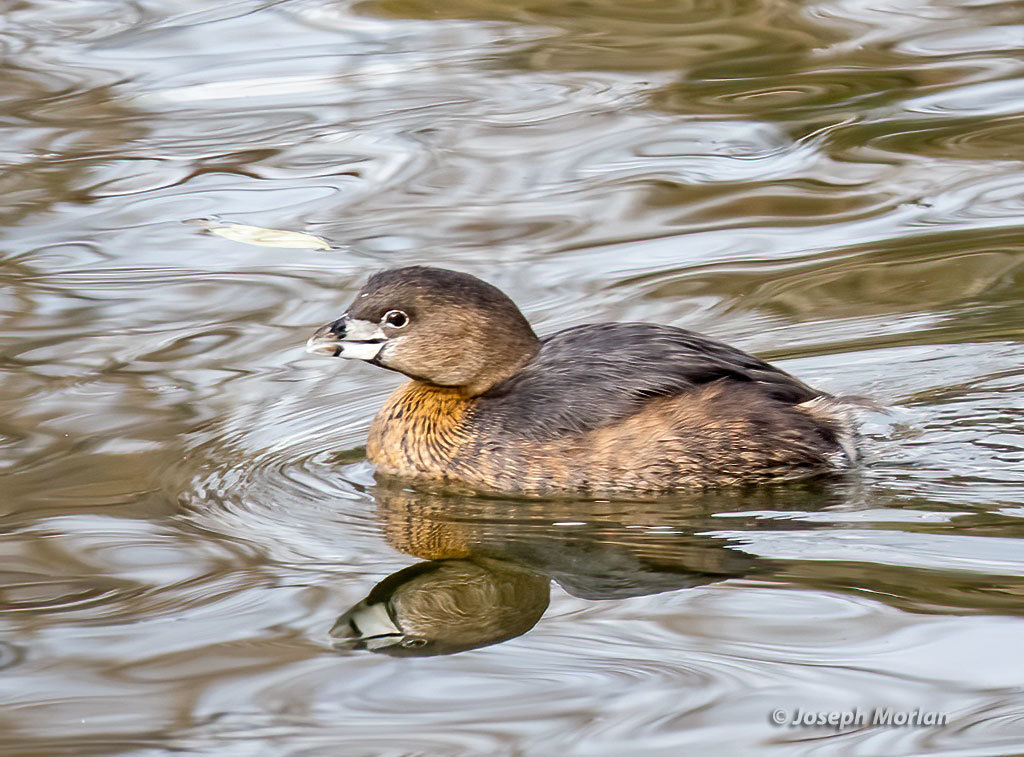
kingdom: Animalia
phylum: Chordata
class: Aves
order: Podicipediformes
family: Podicipedidae
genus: Podilymbus
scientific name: Podilymbus podiceps
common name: Pied-billed grebe
